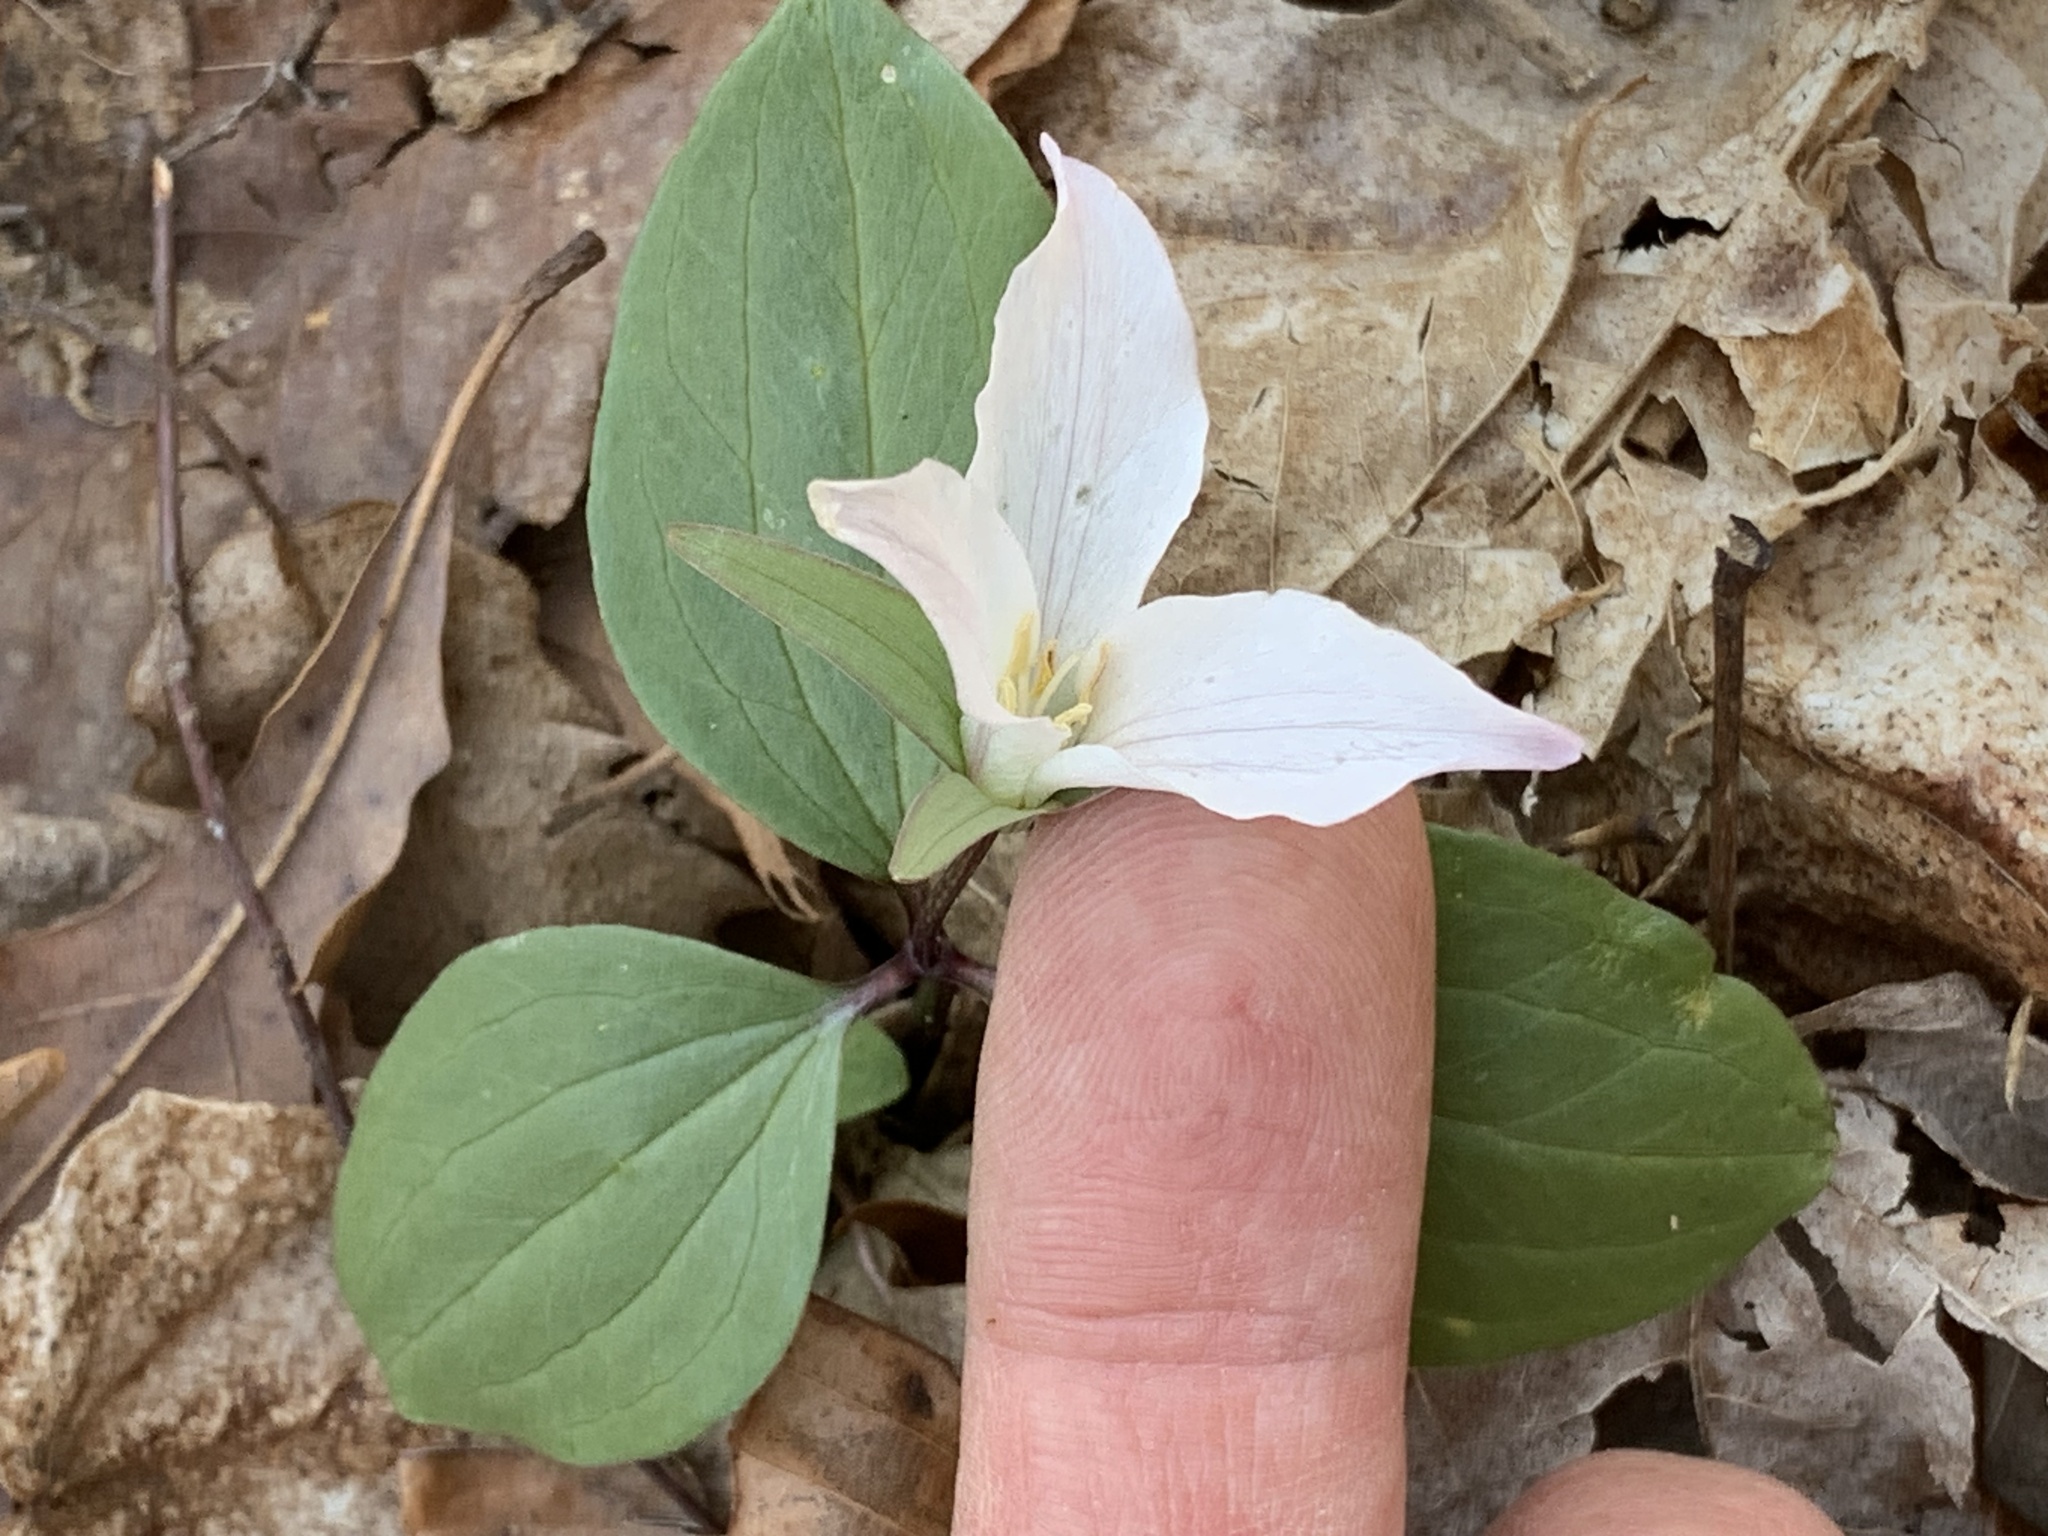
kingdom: Plantae
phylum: Tracheophyta
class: Liliopsida
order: Liliales
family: Melanthiaceae
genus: Trillium
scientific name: Trillium nivale
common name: Dwarf white trillium
